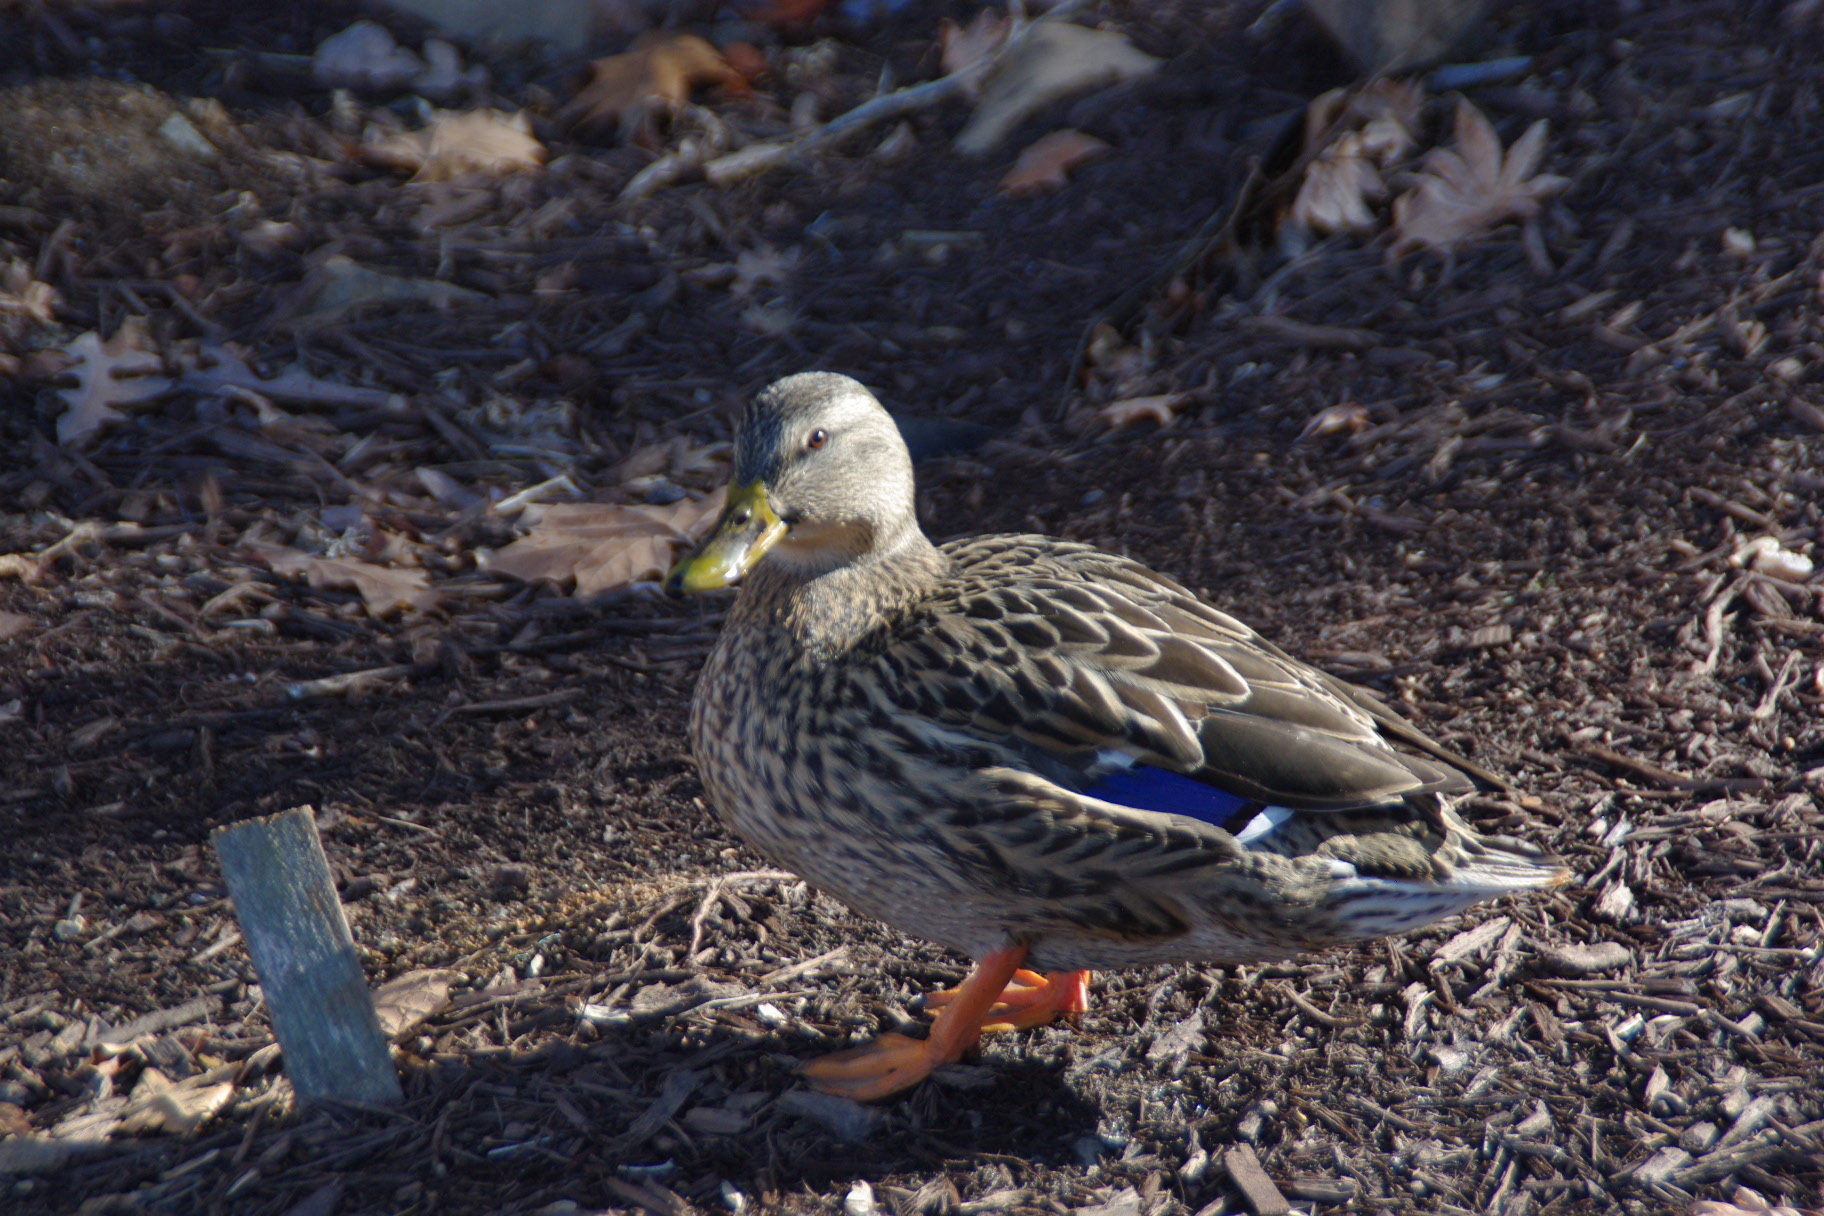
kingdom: Animalia
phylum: Chordata
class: Aves
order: Anseriformes
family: Anatidae
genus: Anas
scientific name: Anas platyrhynchos
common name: Mallard
